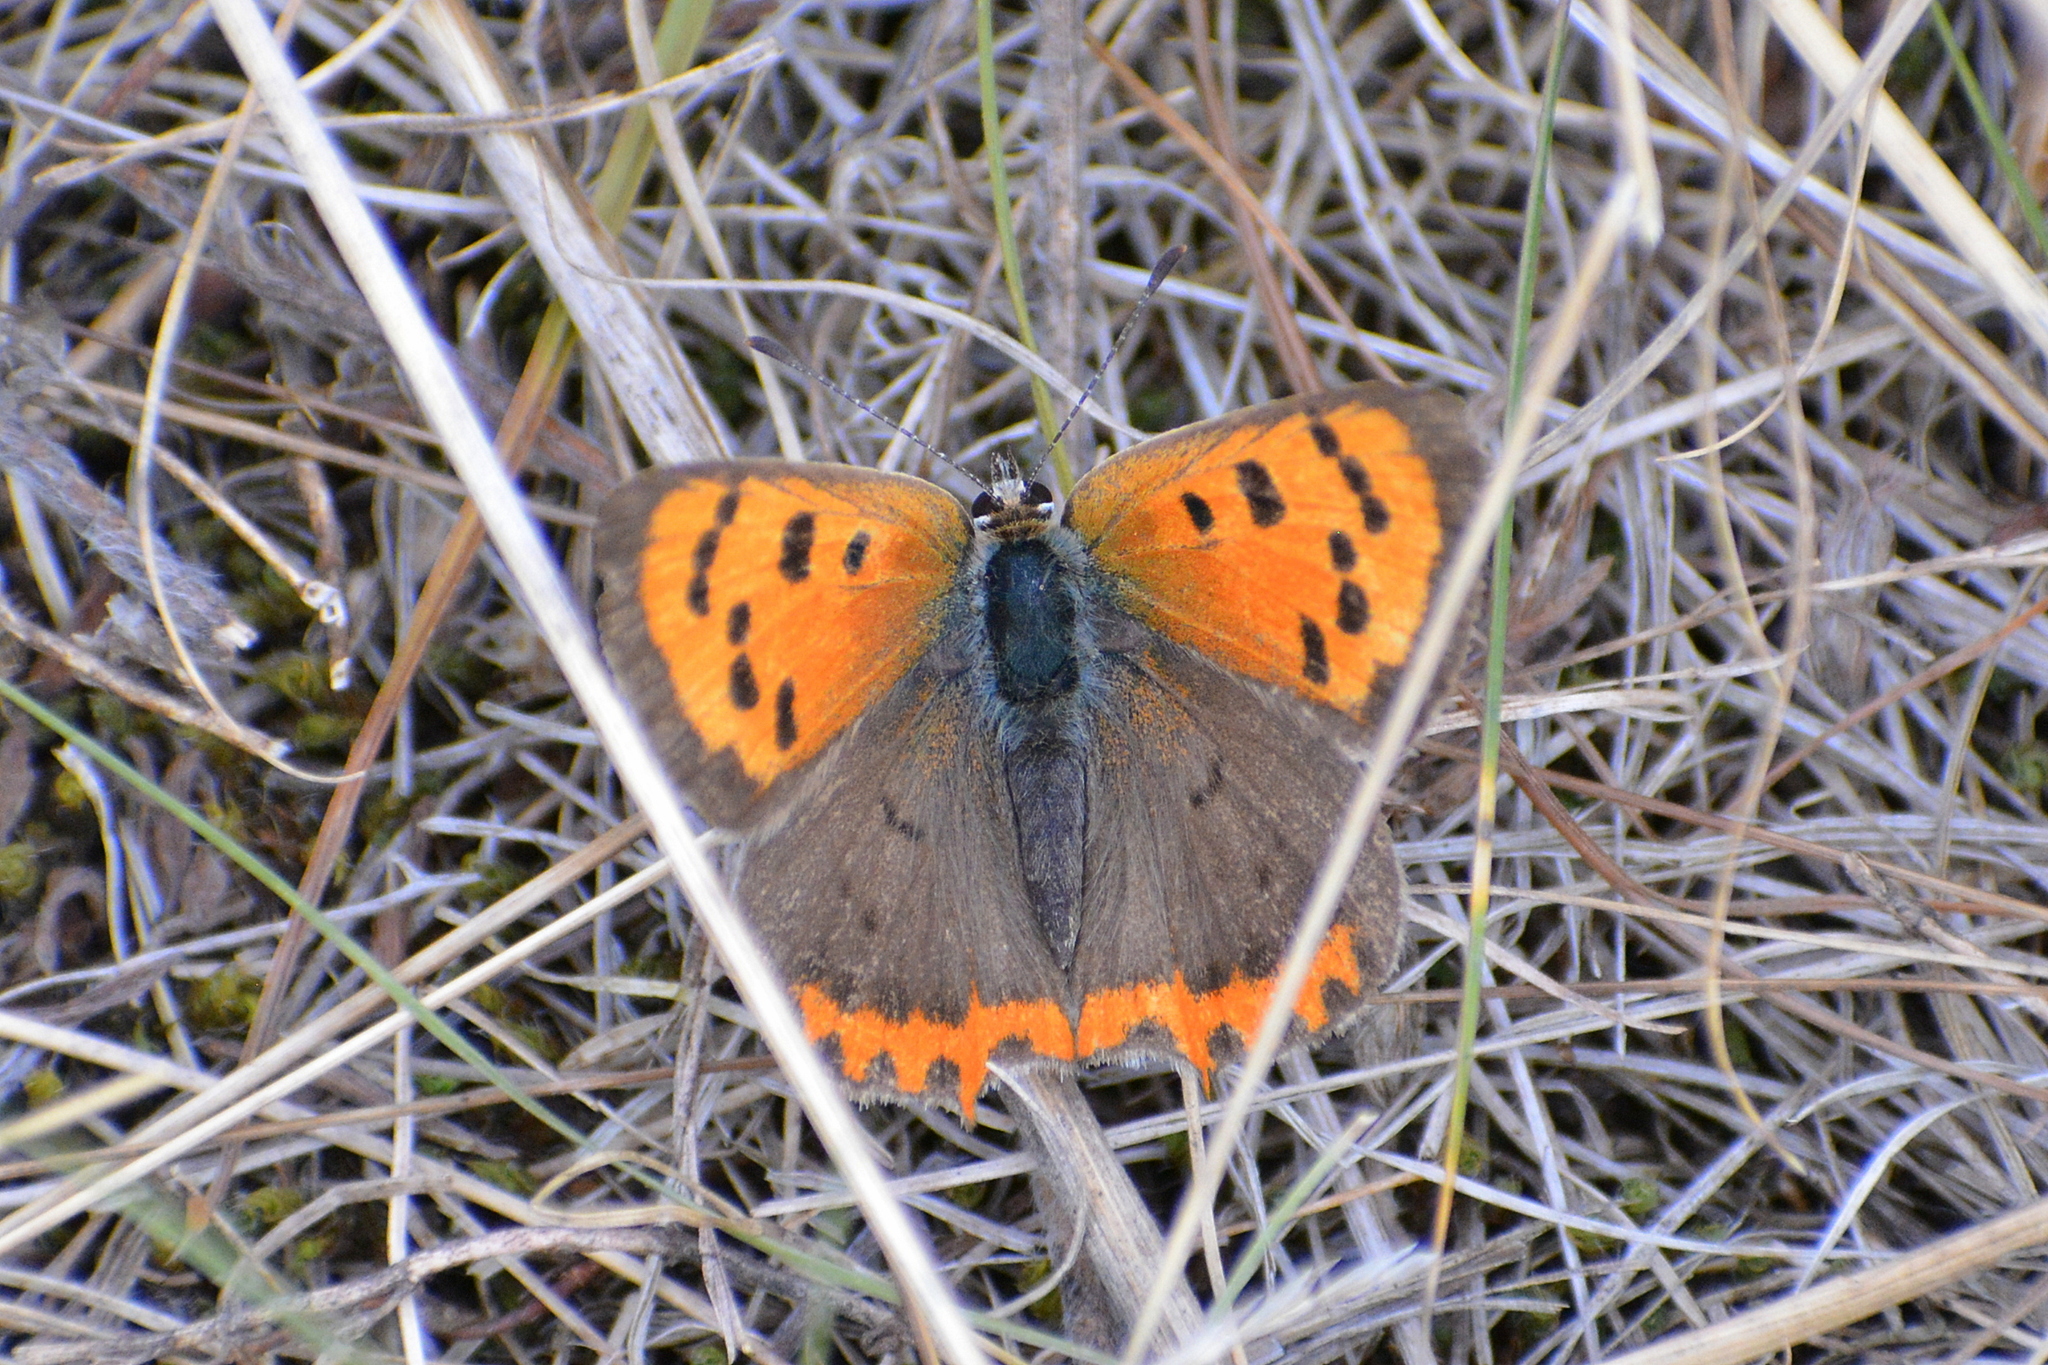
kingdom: Animalia
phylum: Arthropoda
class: Insecta
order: Lepidoptera
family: Lycaenidae
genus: Lycaena
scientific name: Lycaena phlaeas
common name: Small copper
